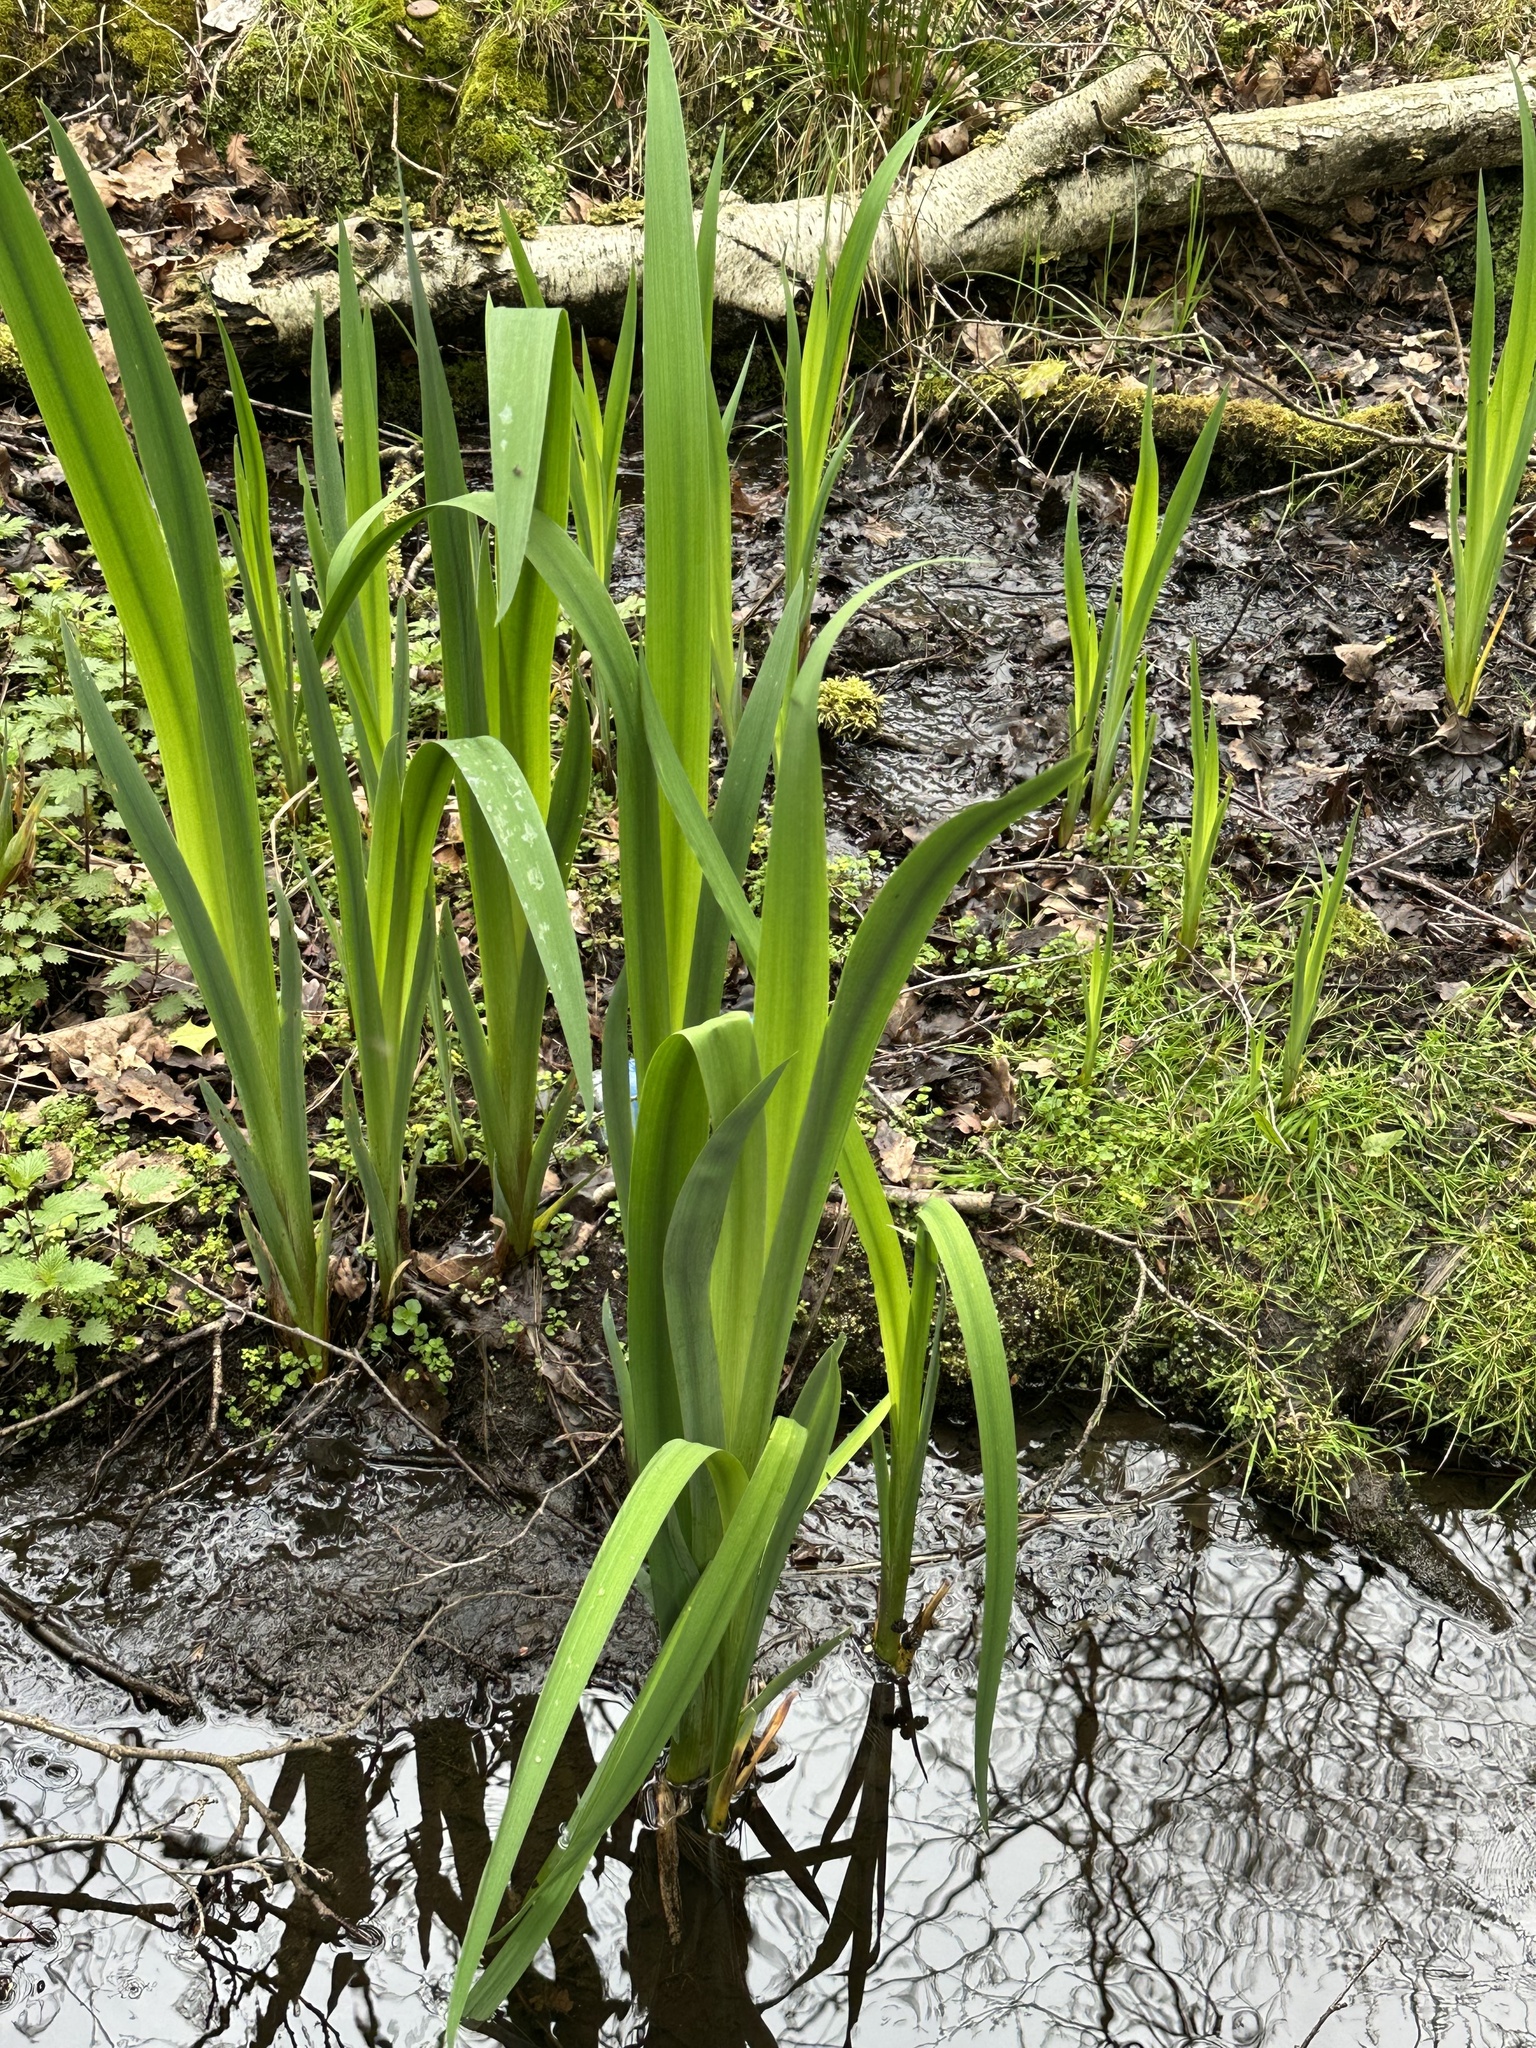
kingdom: Plantae
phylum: Tracheophyta
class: Liliopsida
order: Asparagales
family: Iridaceae
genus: Iris
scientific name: Iris pseudacorus
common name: Yellow flag
